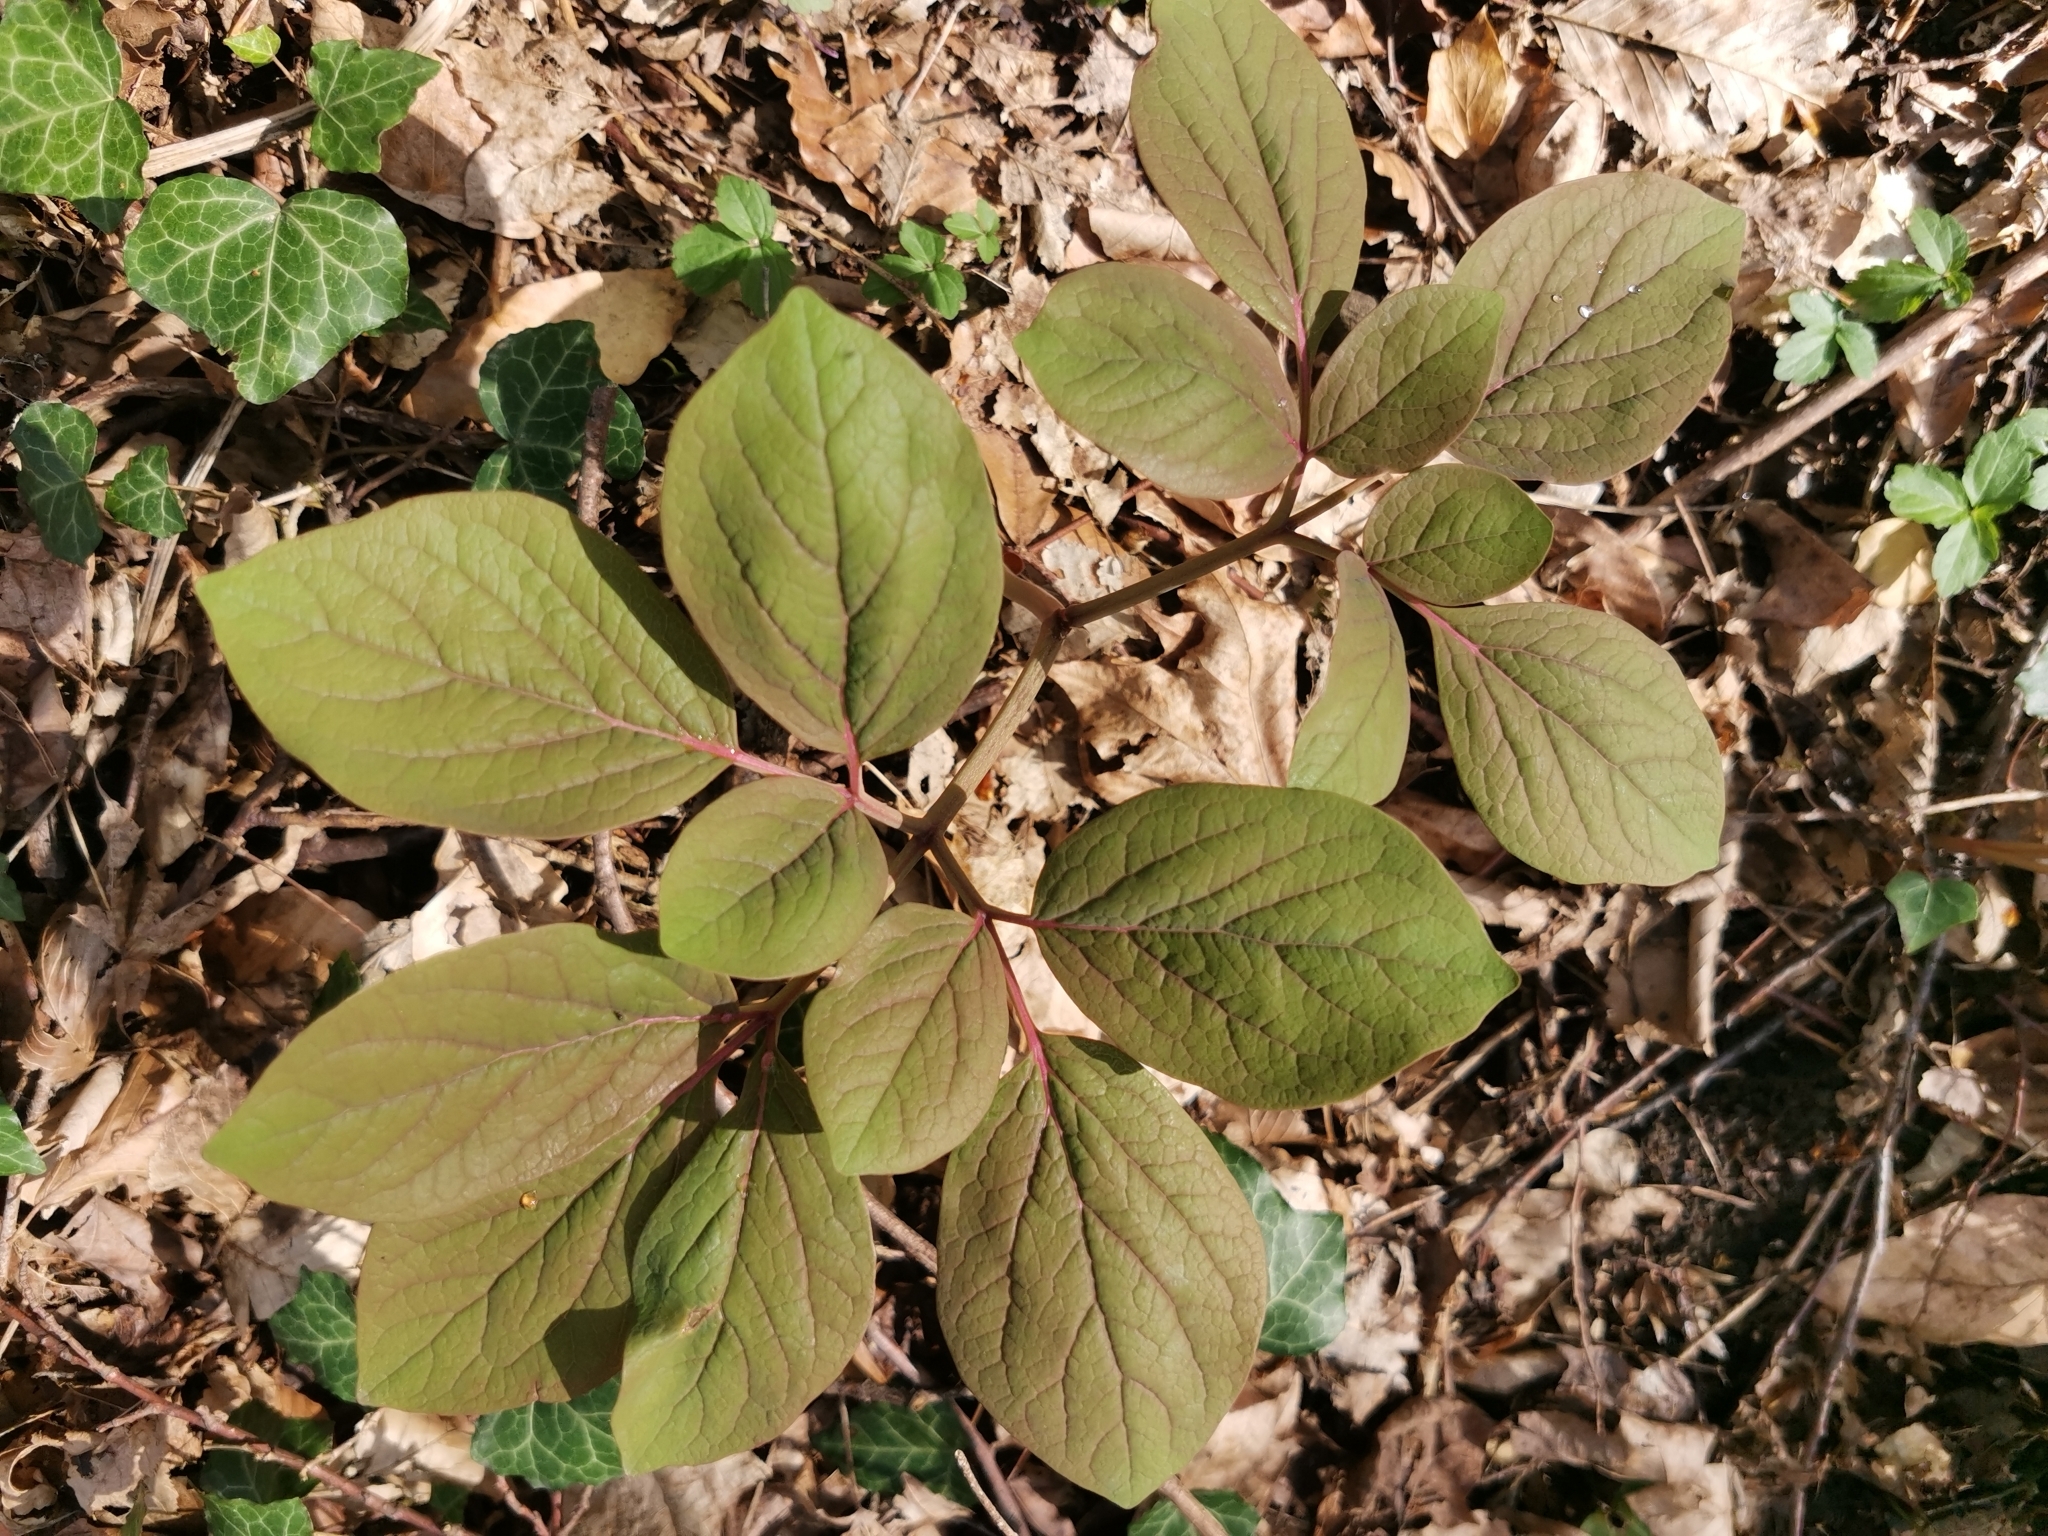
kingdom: Plantae
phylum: Tracheophyta
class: Magnoliopsida
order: Saxifragales
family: Paeoniaceae
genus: Paeonia
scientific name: Paeonia caucasica
